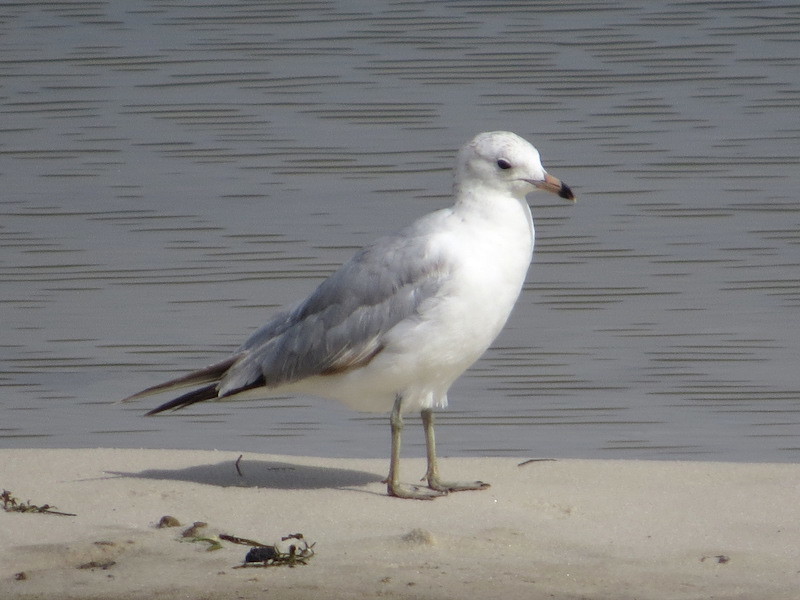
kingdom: Animalia
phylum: Chordata
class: Aves
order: Charadriiformes
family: Laridae
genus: Larus
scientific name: Larus delawarensis
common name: Ring-billed gull
